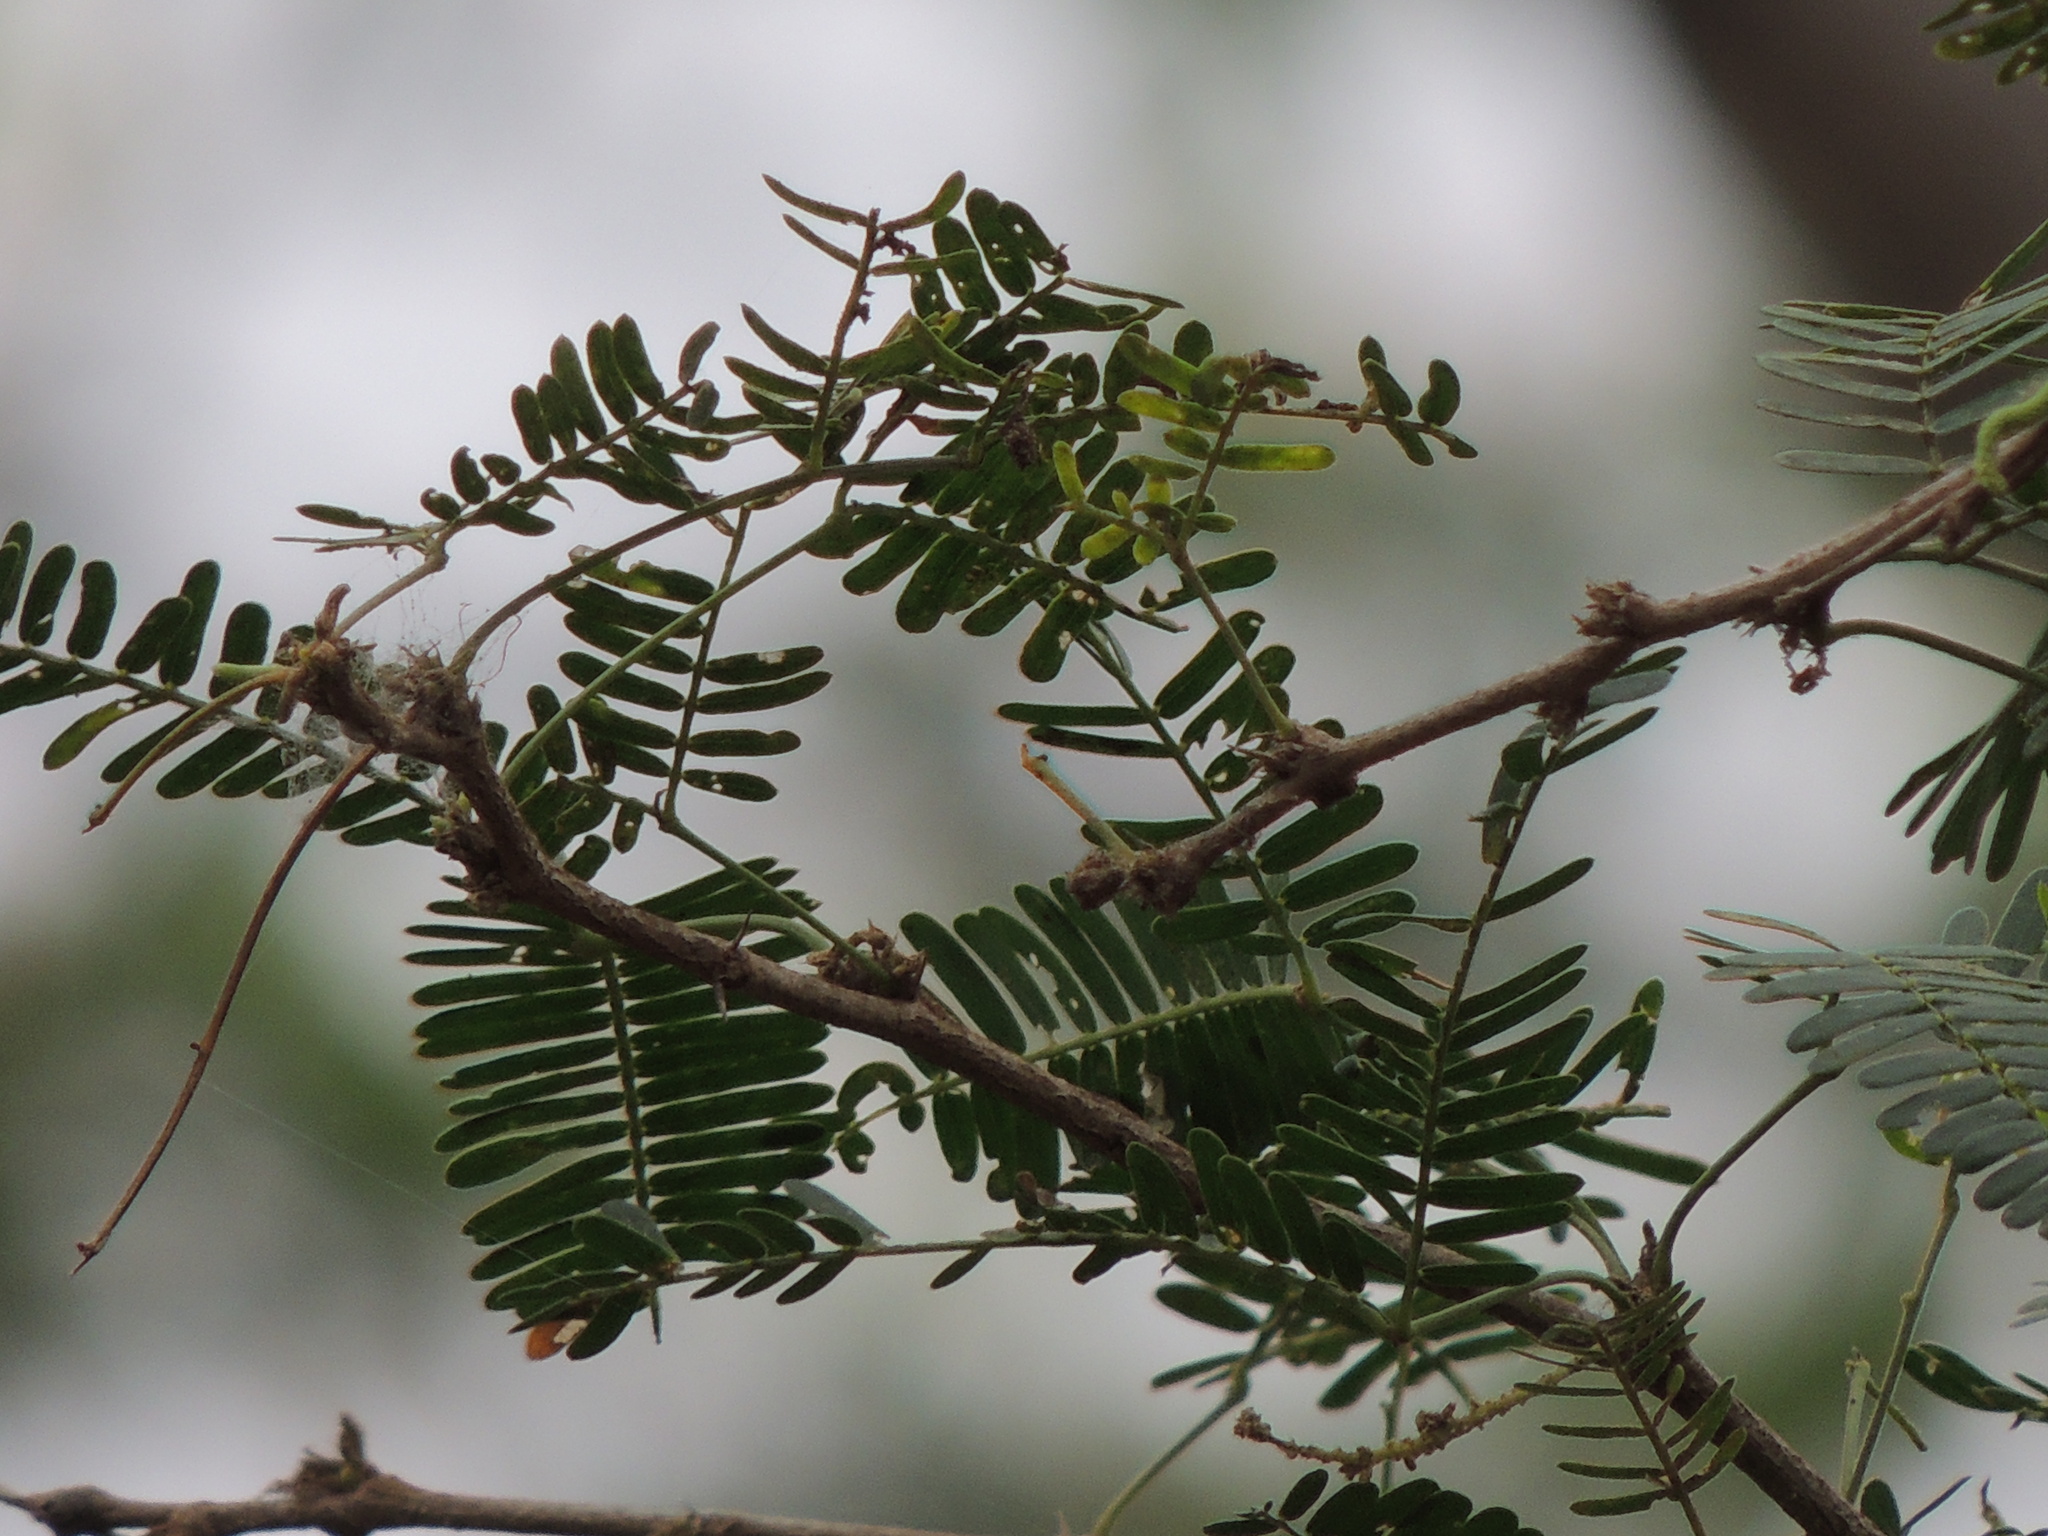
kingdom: Plantae
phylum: Tracheophyta
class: Magnoliopsida
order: Fabales
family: Fabaceae
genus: Samanea
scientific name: Samanea saman
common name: Raintree
